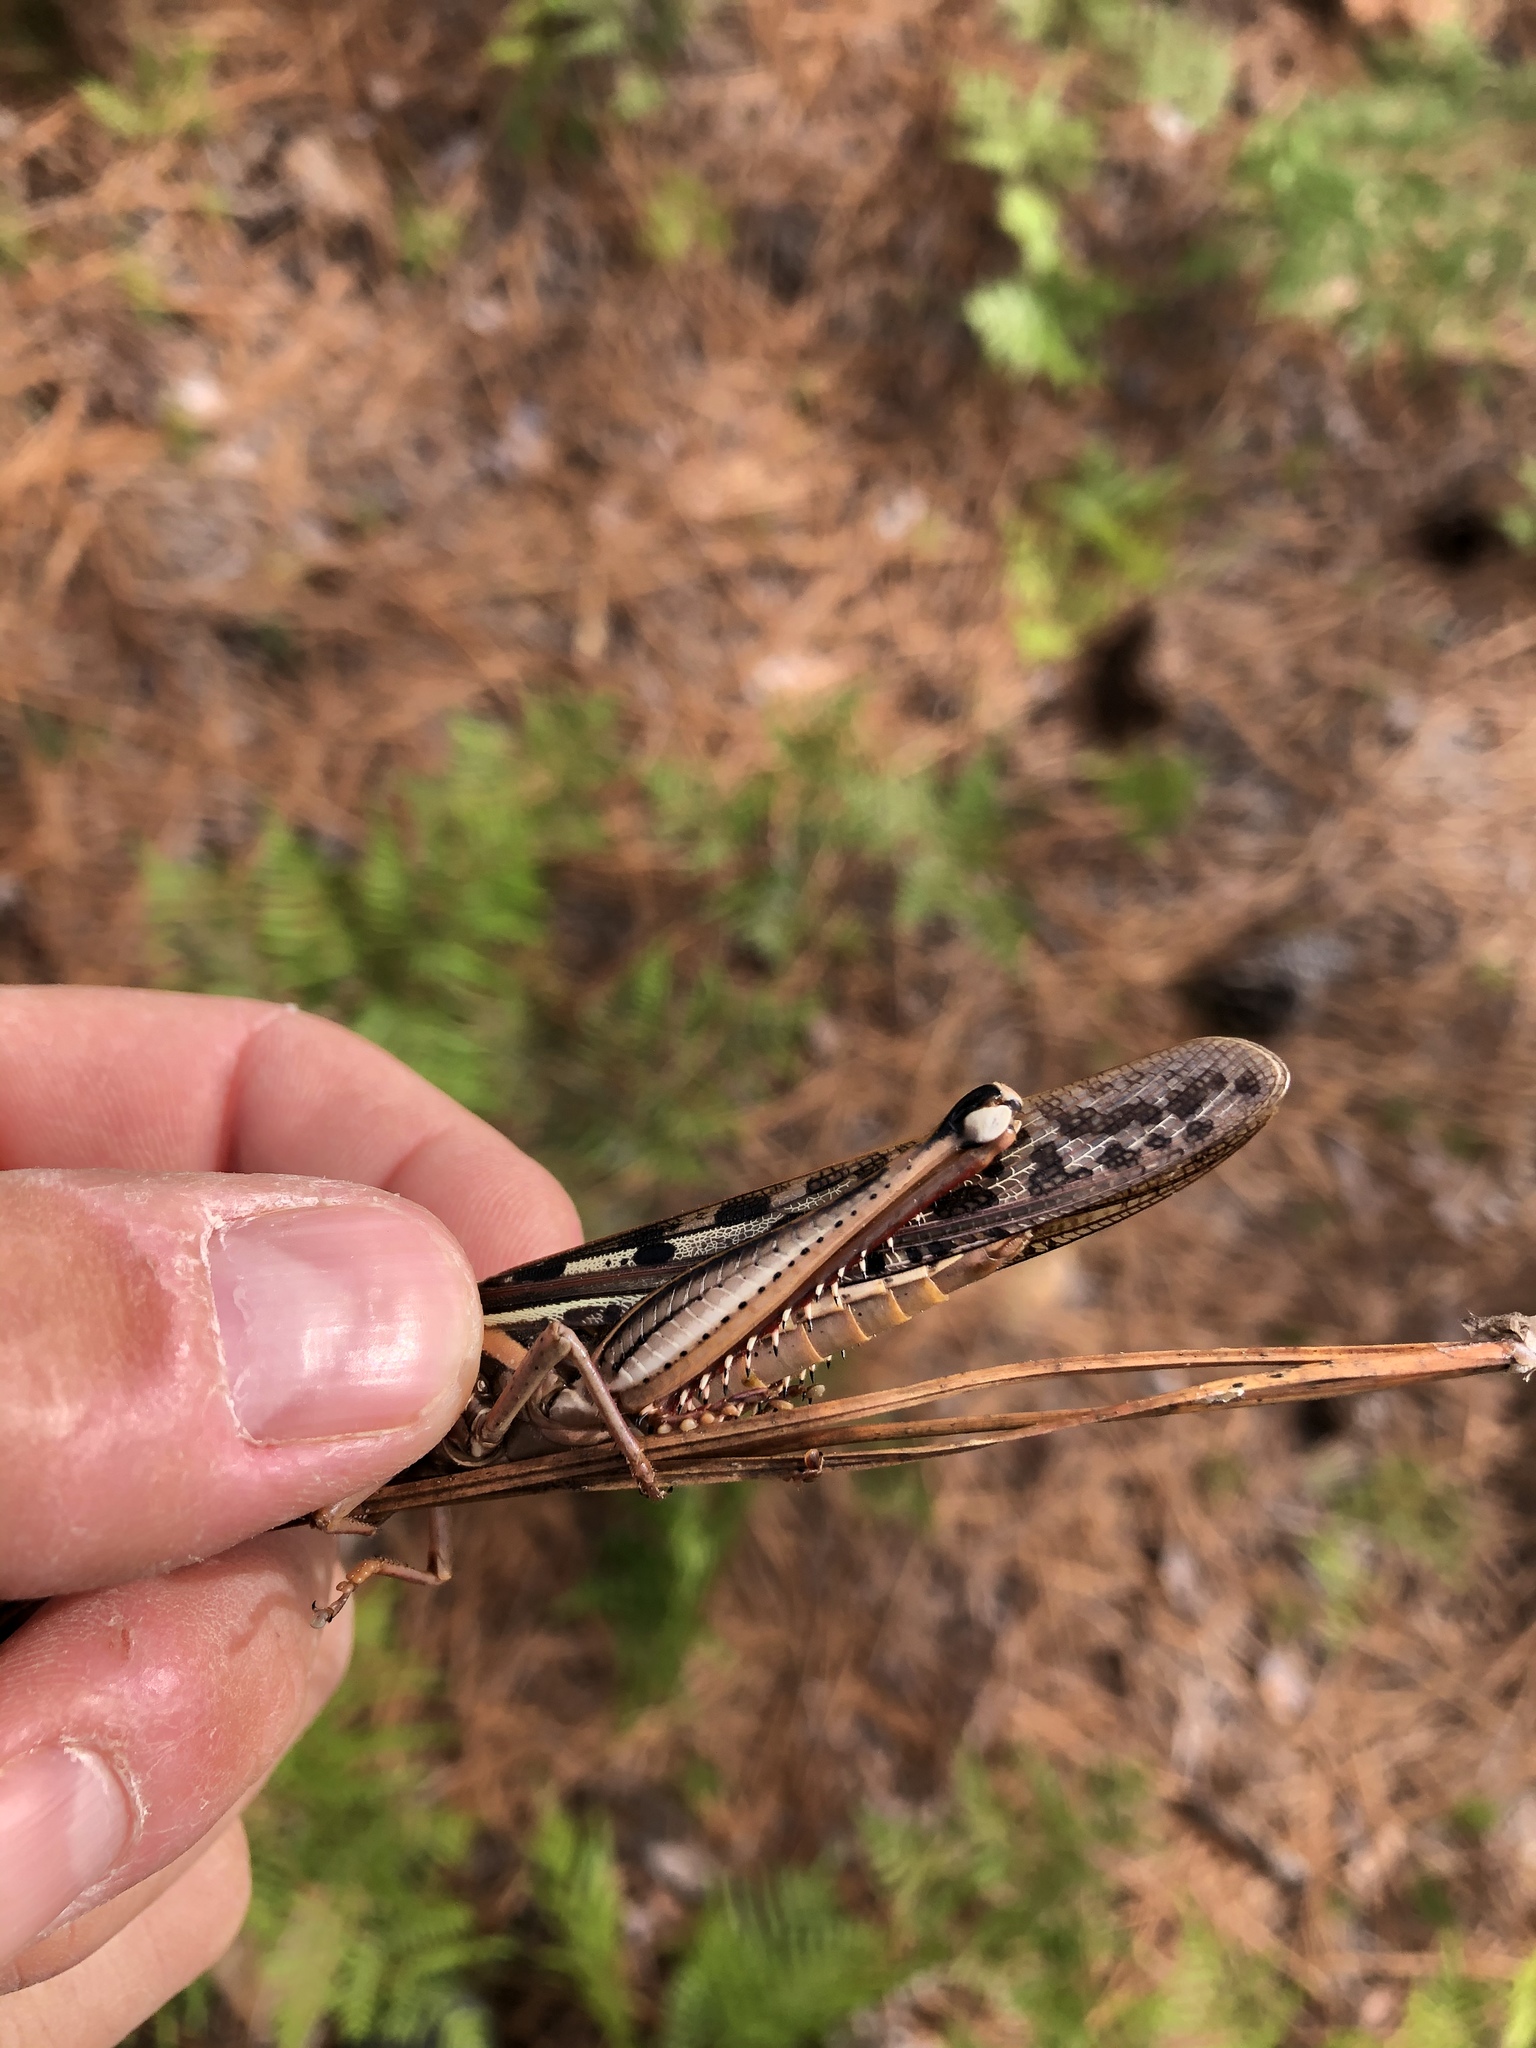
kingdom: Animalia
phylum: Arthropoda
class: Insecta
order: Orthoptera
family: Acrididae
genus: Schistocerca
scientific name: Schistocerca americana
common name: American bird locust
